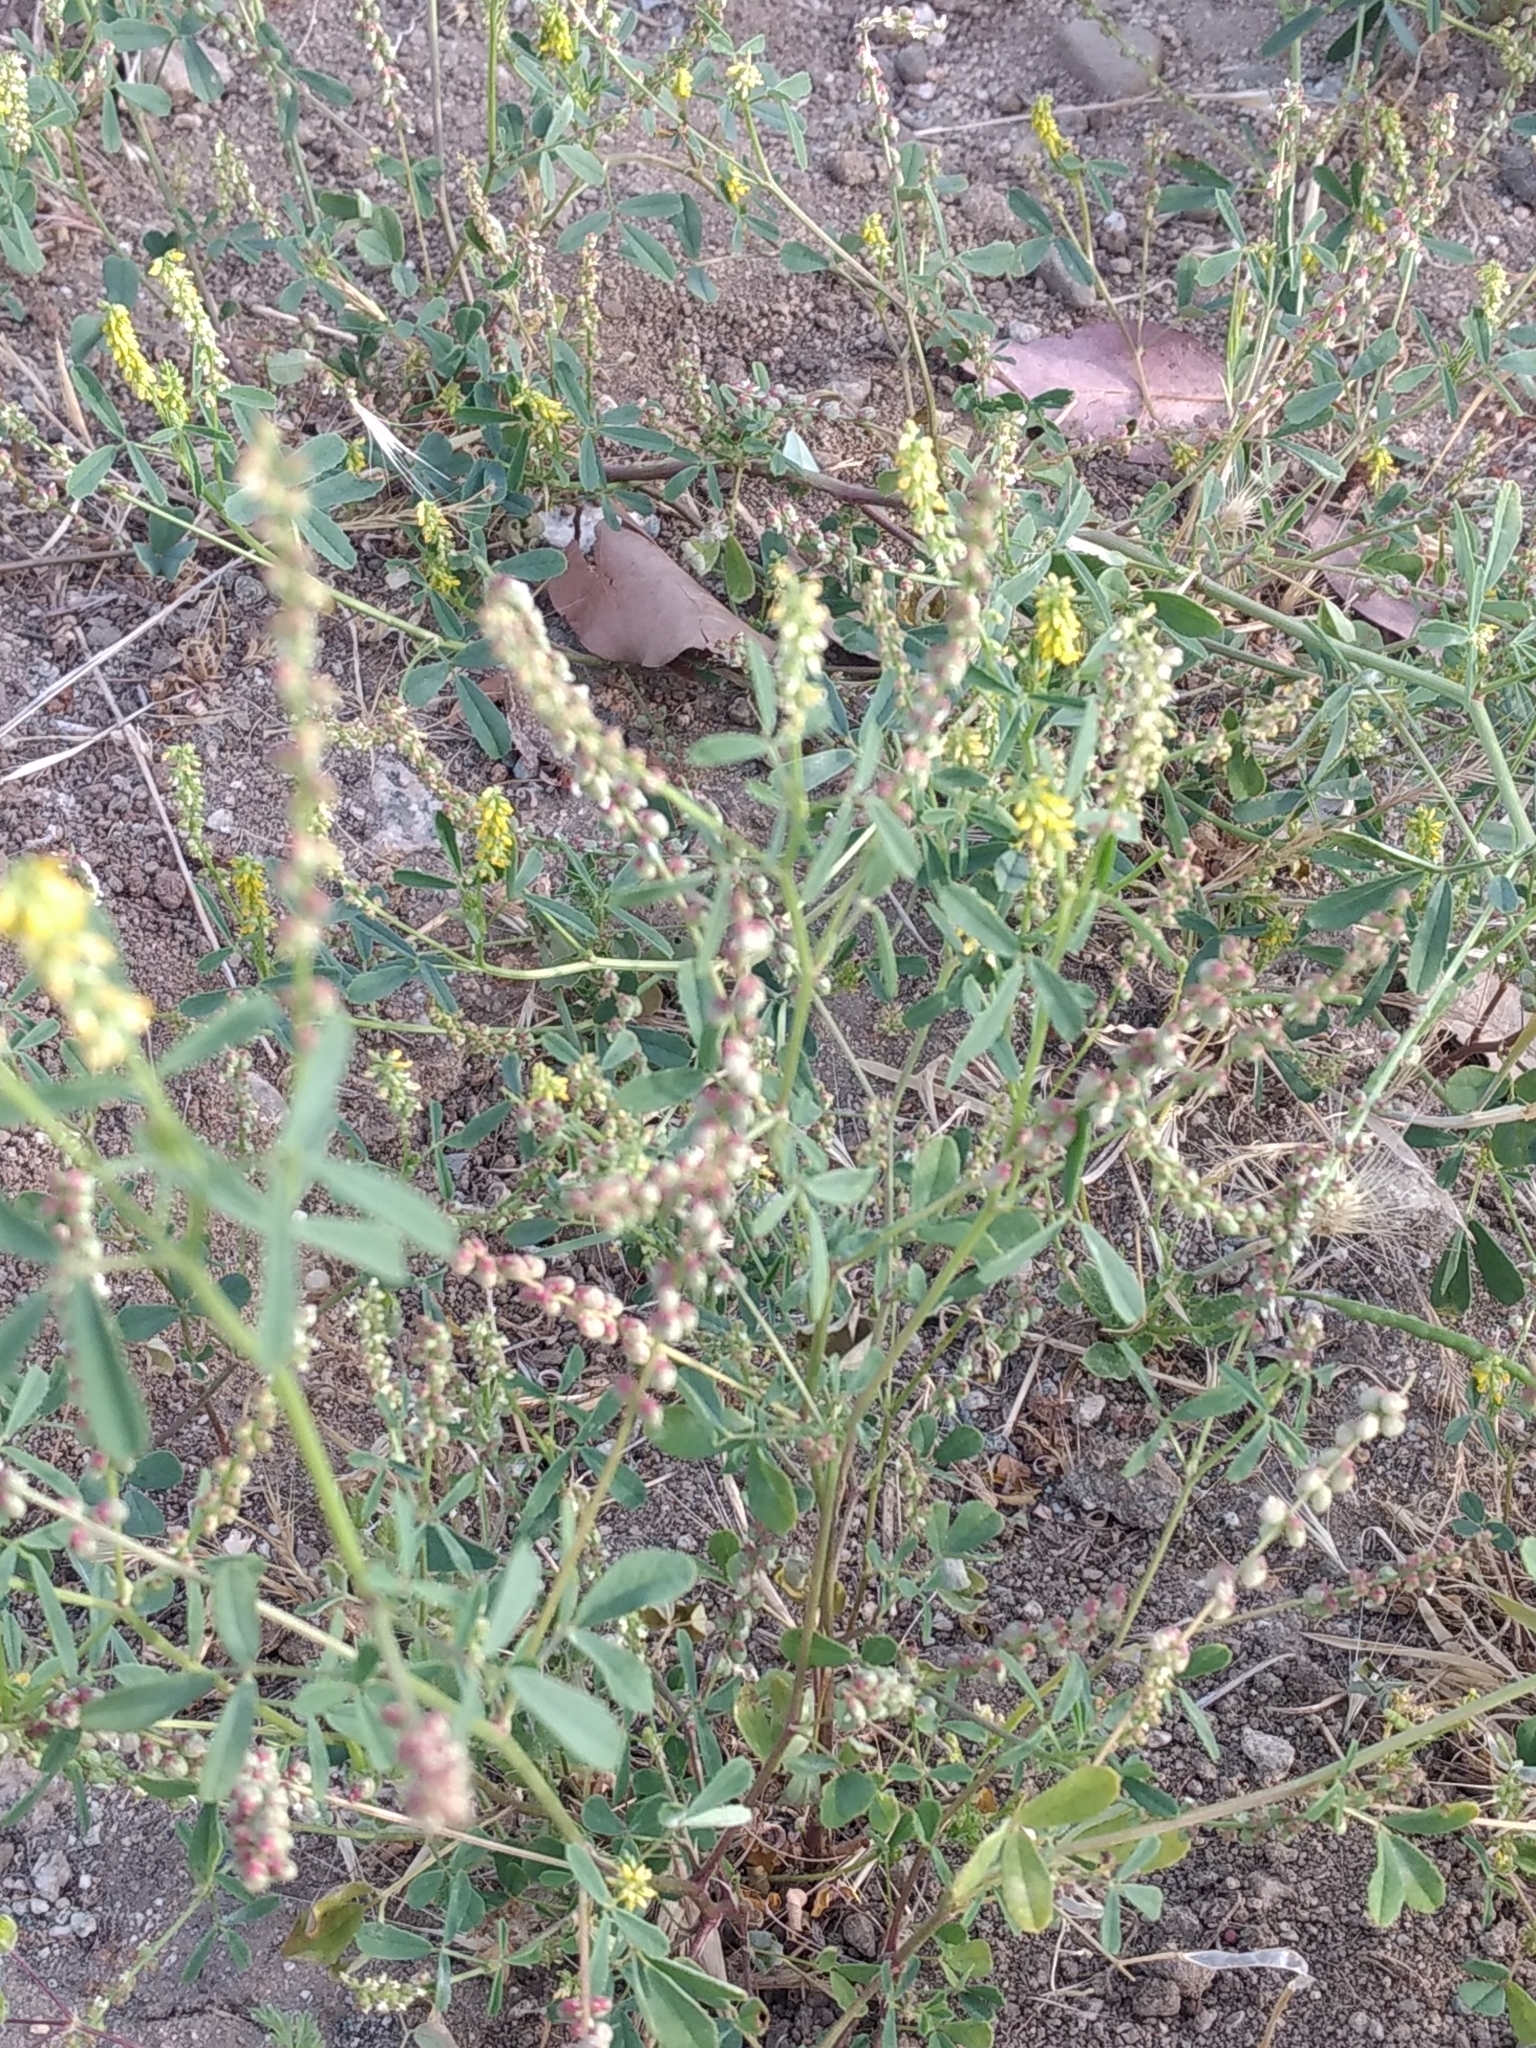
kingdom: Plantae
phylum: Tracheophyta
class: Magnoliopsida
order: Fabales
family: Fabaceae
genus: Melilotus
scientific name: Melilotus indicus
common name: Small melilot
